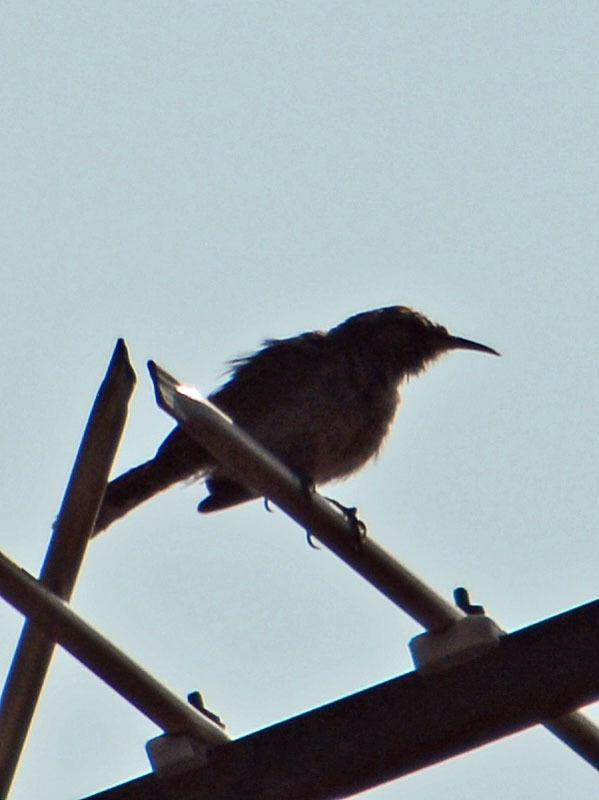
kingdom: Animalia
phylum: Chordata
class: Aves
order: Passeriformes
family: Troglodytidae
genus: Thryomanes
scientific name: Thryomanes bewickii
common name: Bewick's wren
